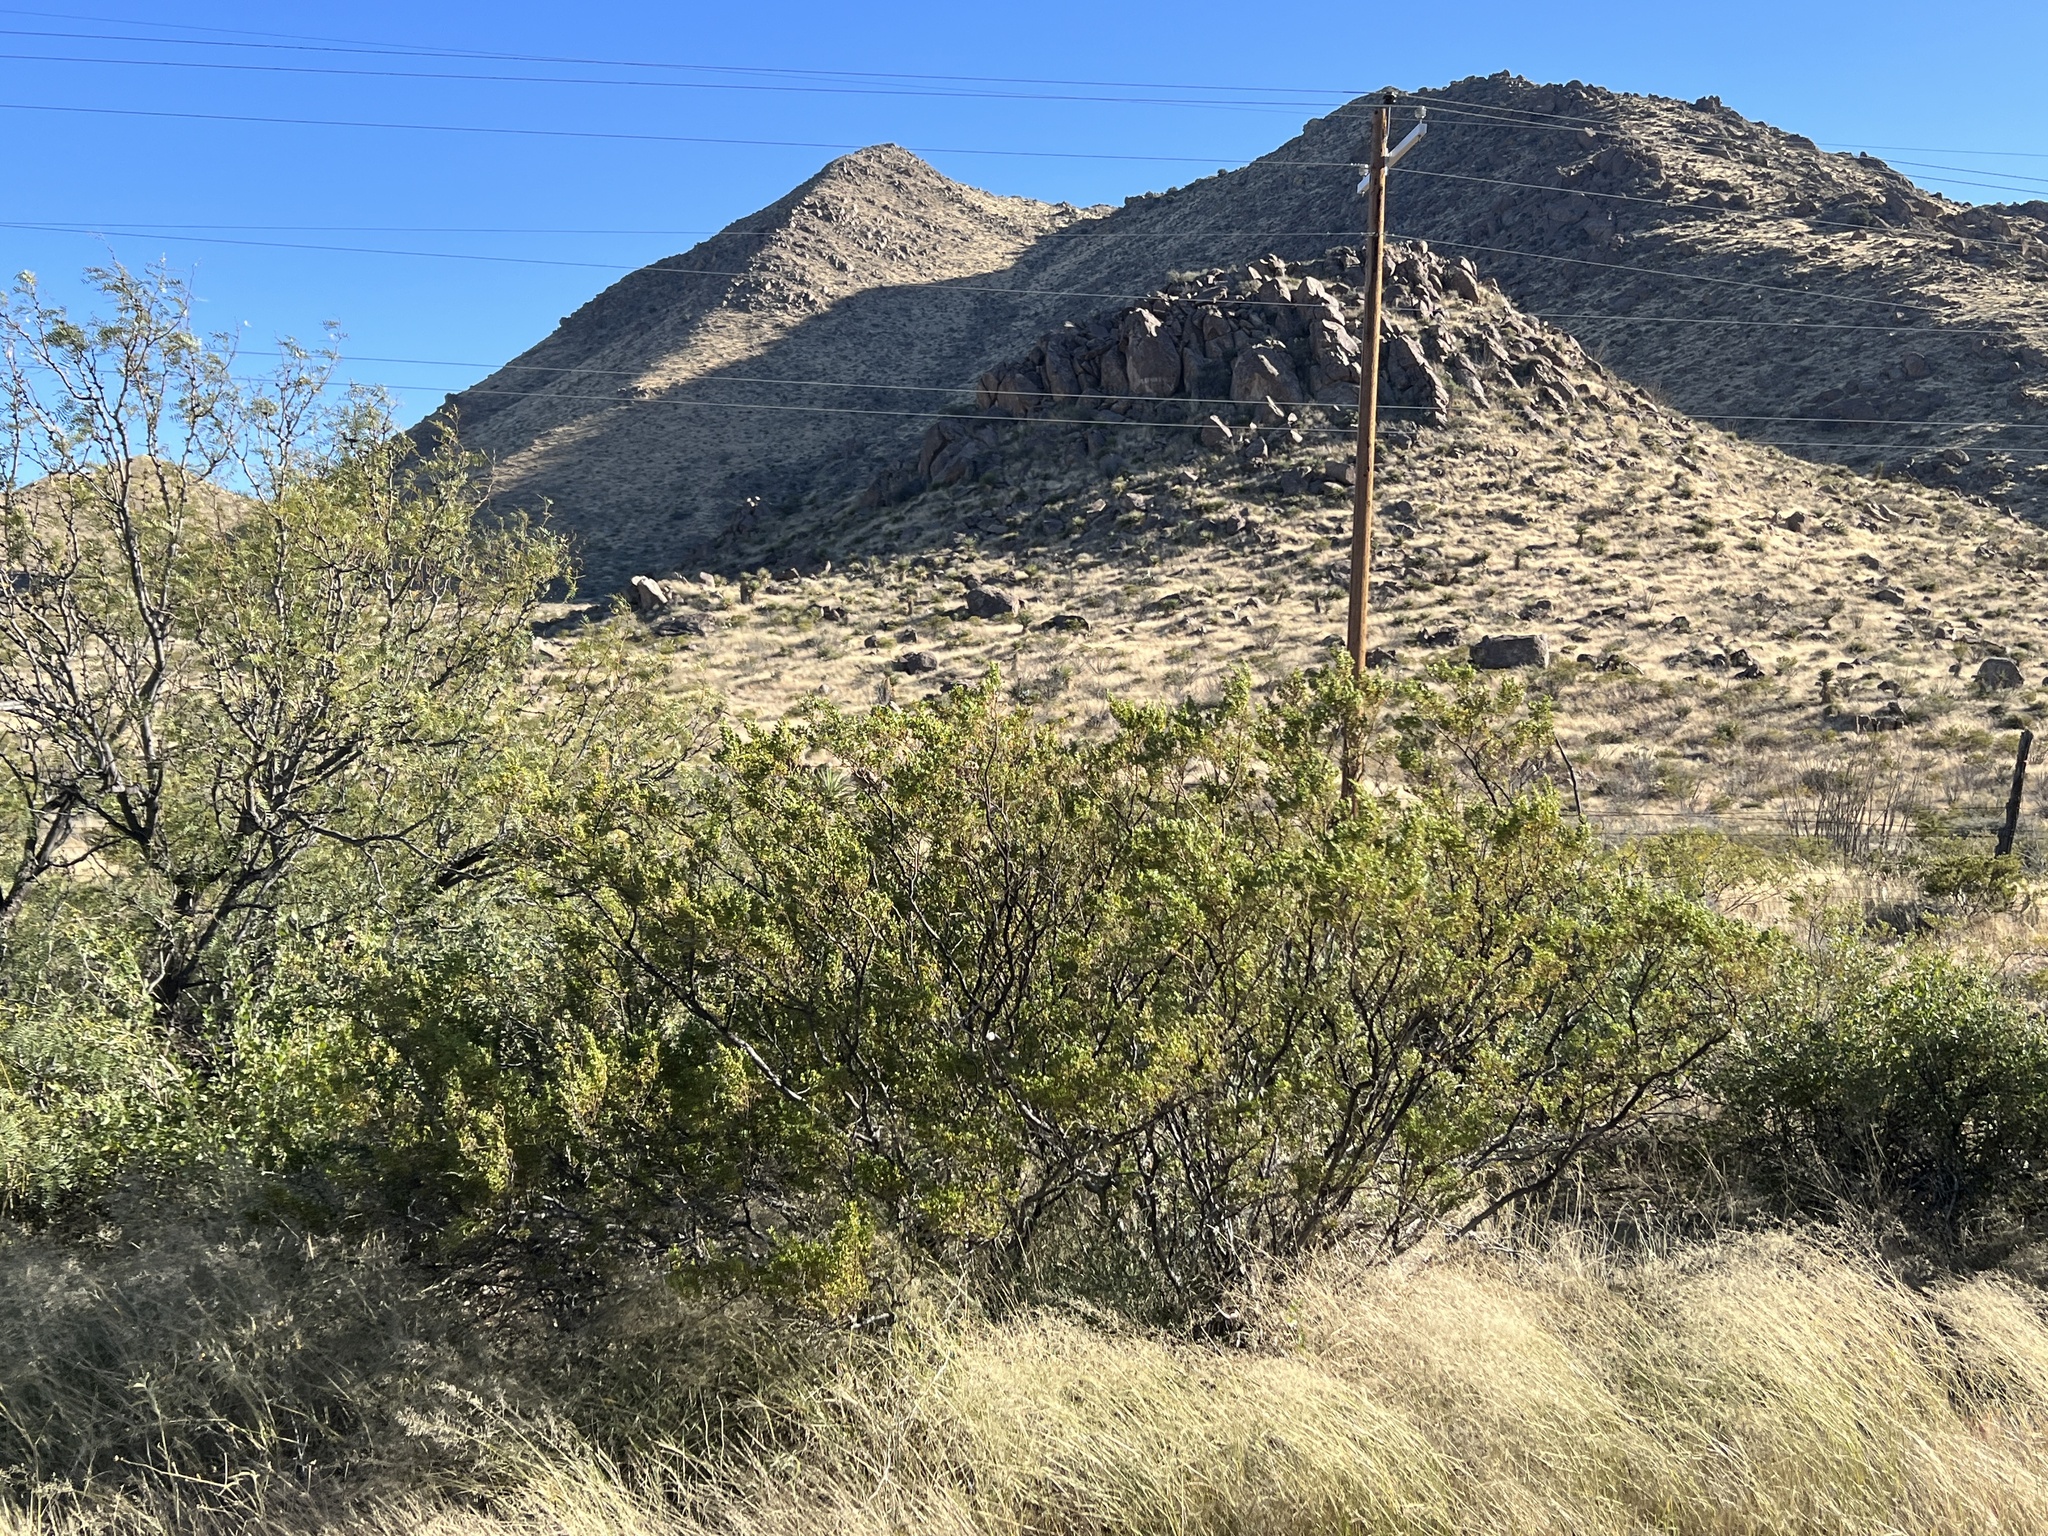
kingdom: Plantae
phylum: Tracheophyta
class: Magnoliopsida
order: Zygophyllales
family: Zygophyllaceae
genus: Larrea
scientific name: Larrea tridentata
